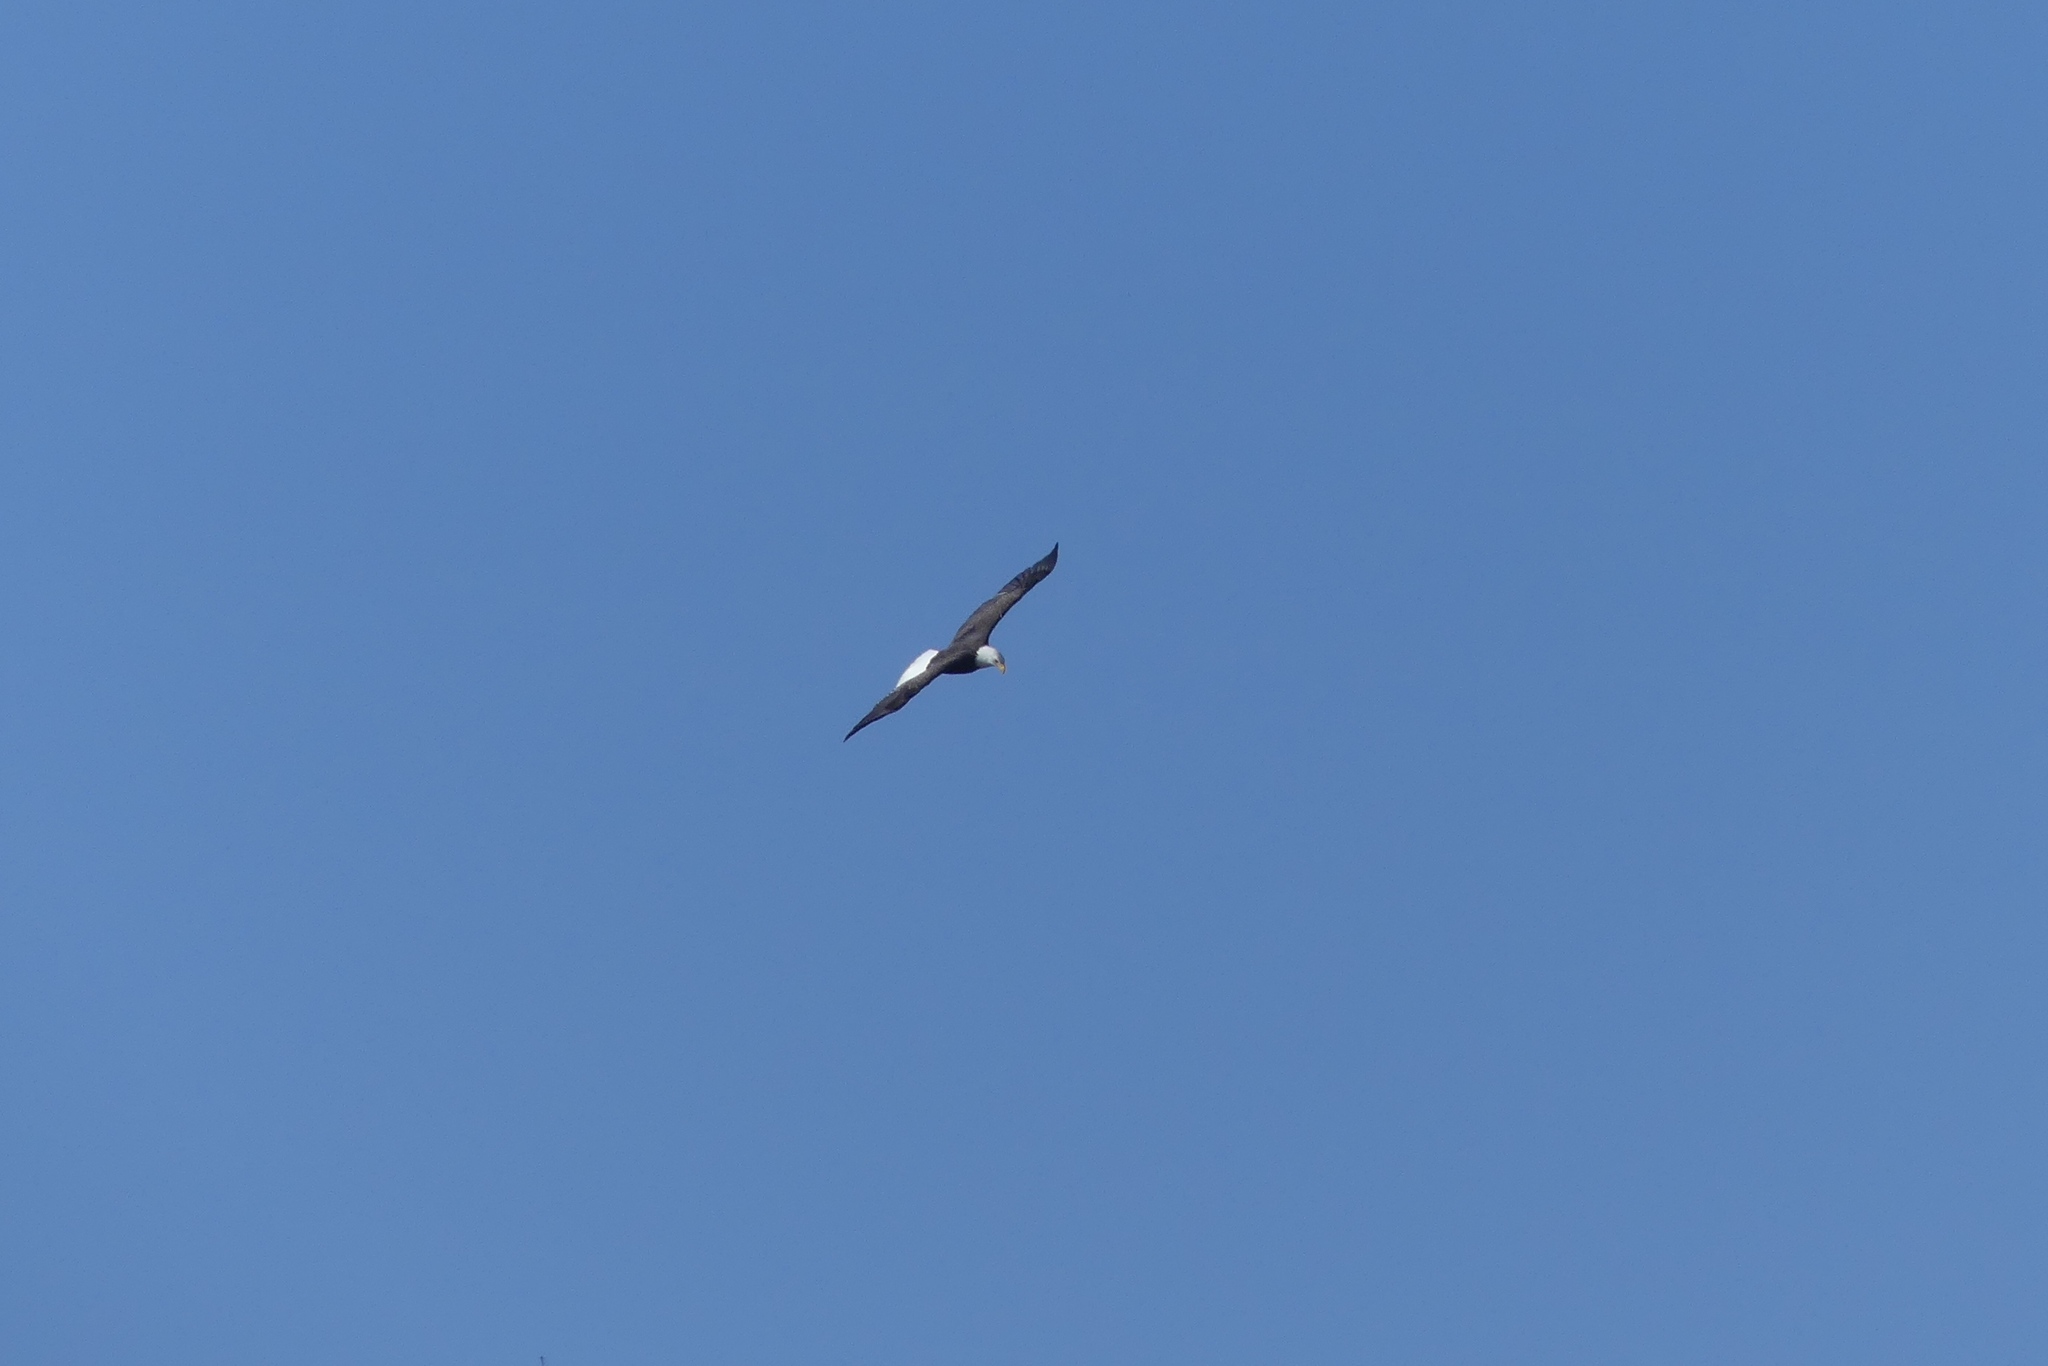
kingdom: Animalia
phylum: Chordata
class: Aves
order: Accipitriformes
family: Accipitridae
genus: Haliaeetus
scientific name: Haliaeetus leucocephalus
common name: Bald eagle
